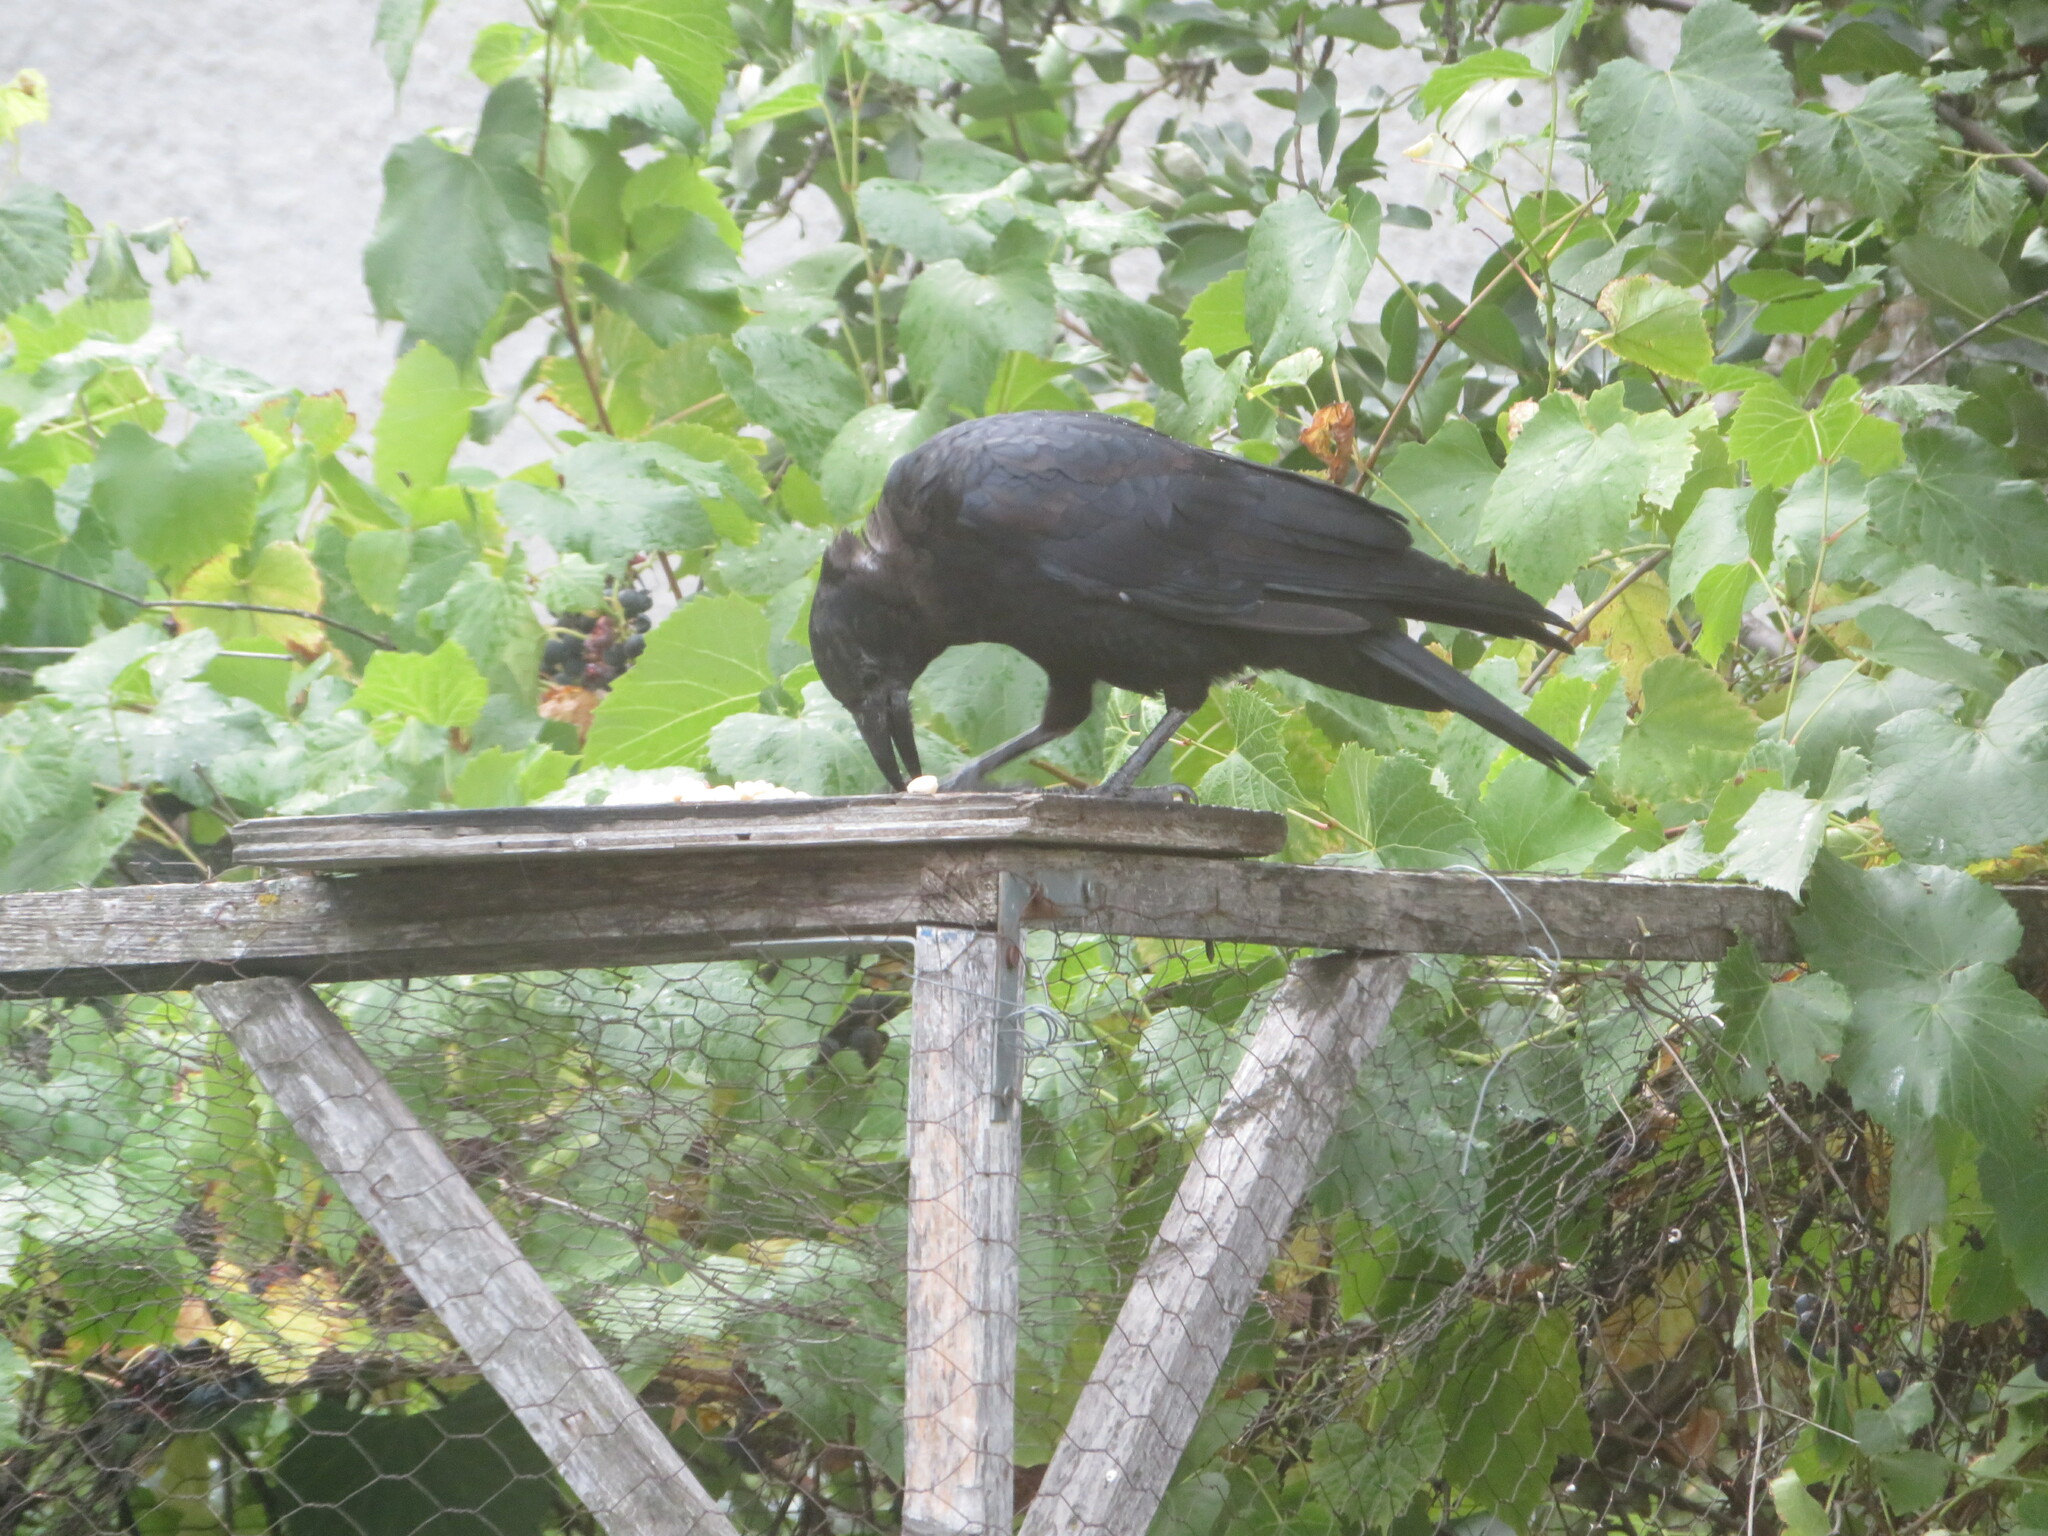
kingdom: Animalia
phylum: Chordata
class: Aves
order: Passeriformes
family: Corvidae
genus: Corvus
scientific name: Corvus brachyrhynchos
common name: American crow
